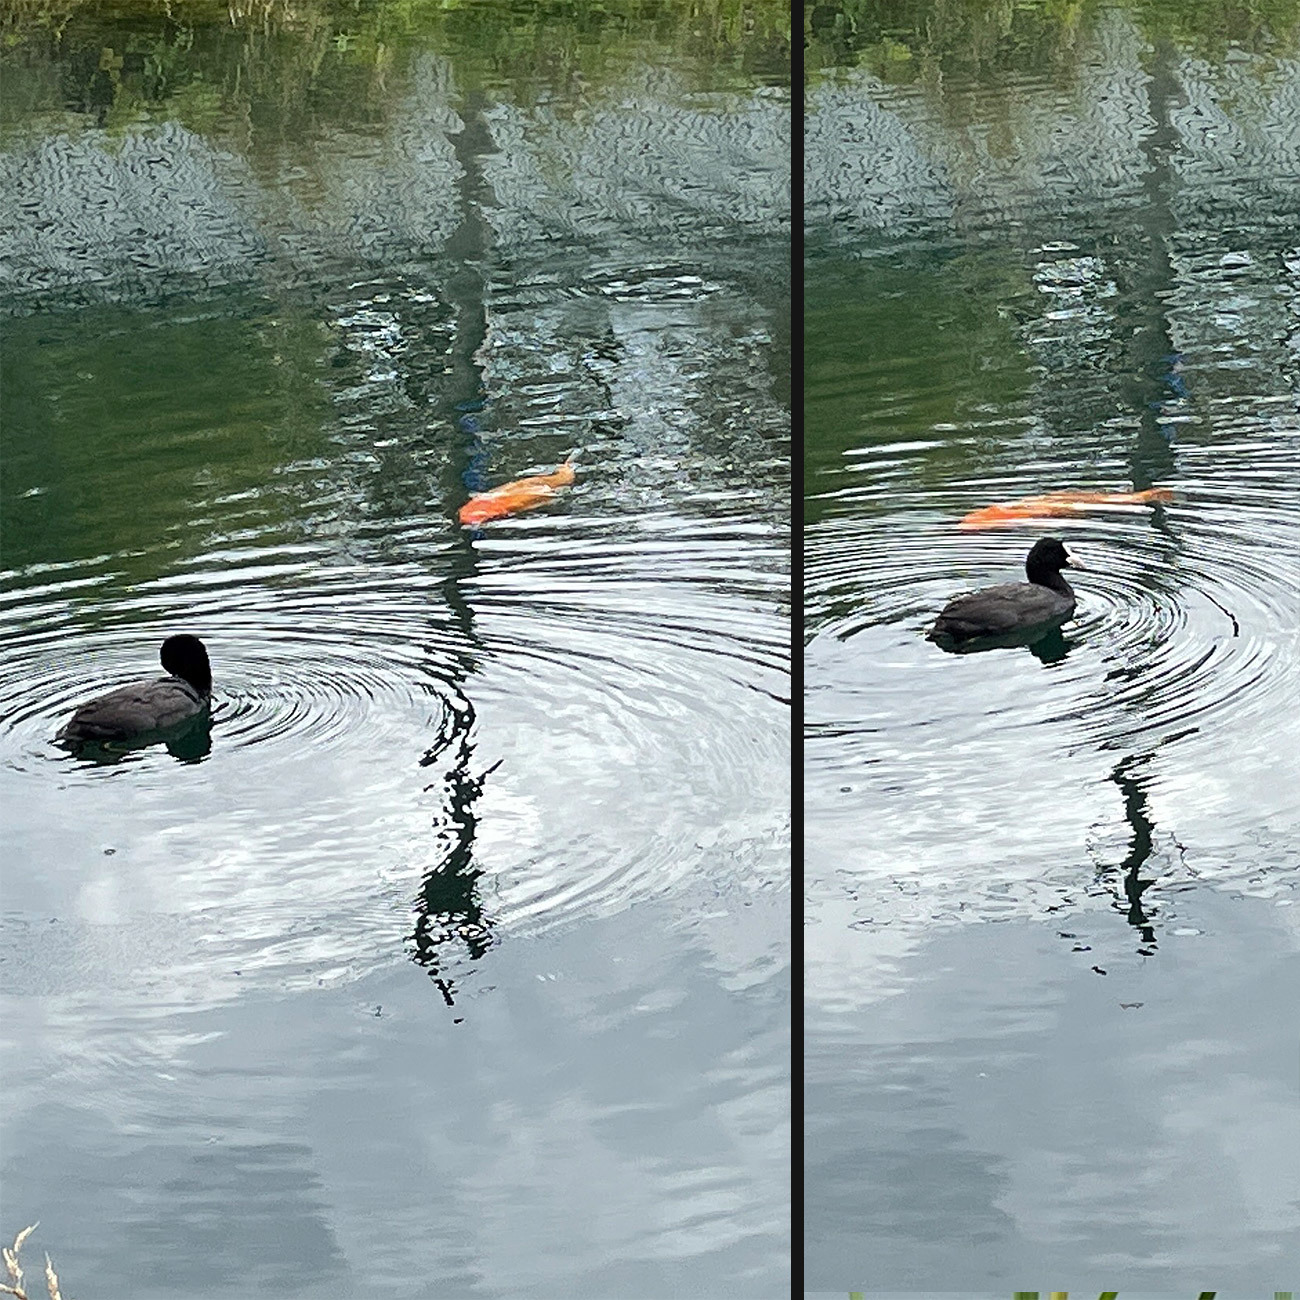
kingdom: Animalia
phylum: Chordata
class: Aves
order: Gruiformes
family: Rallidae
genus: Fulica
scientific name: Fulica atra
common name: Eurasian coot
